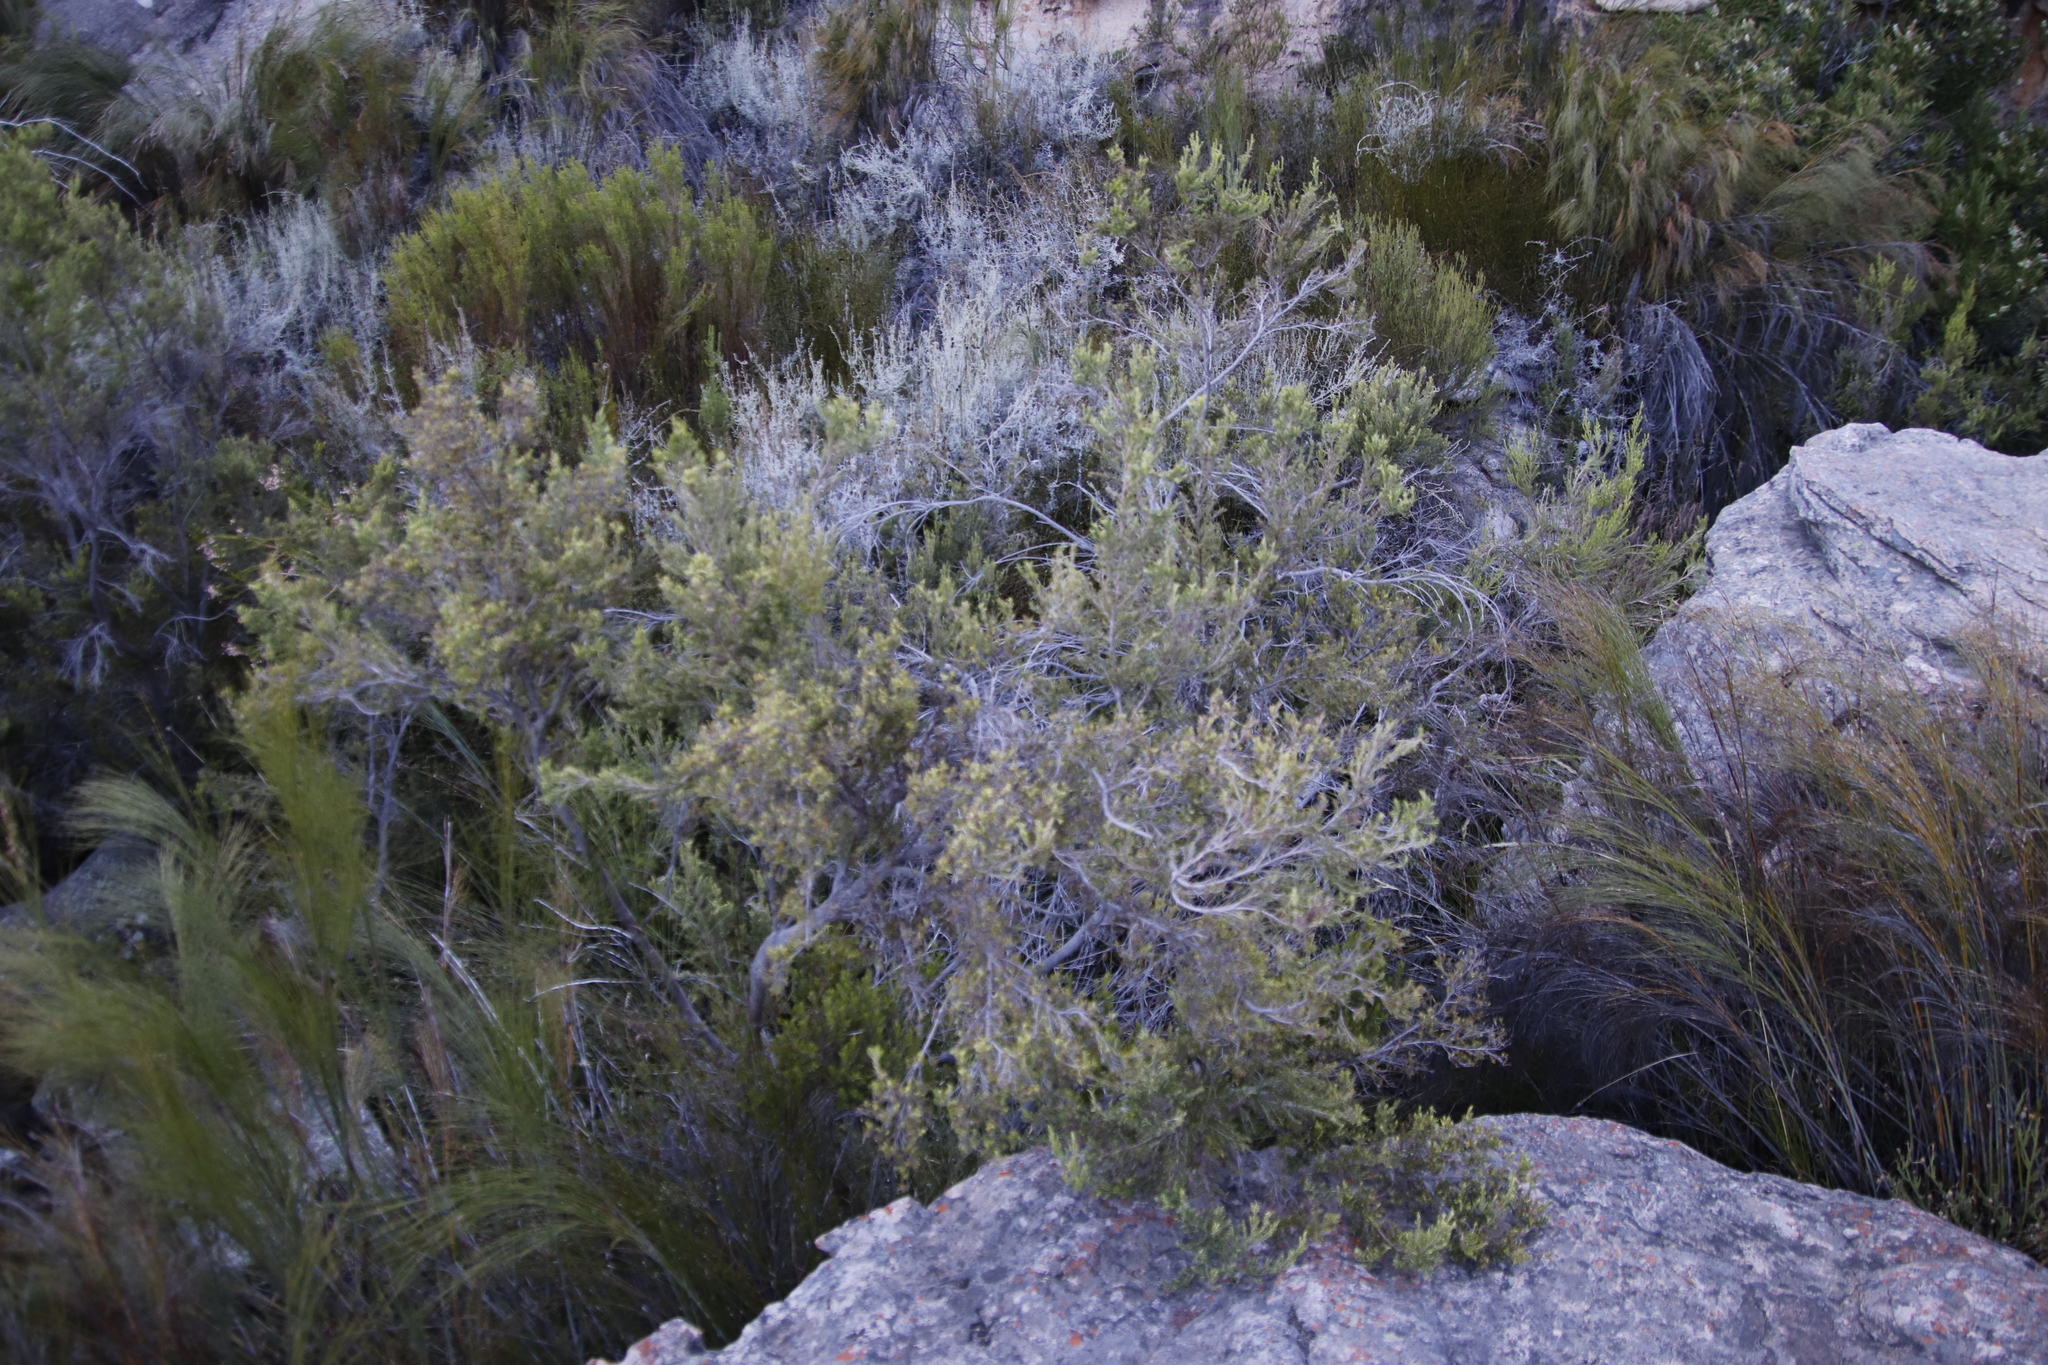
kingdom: Plantae
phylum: Tracheophyta
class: Magnoliopsida
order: Ericales
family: Ericaceae
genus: Erica
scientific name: Erica caffra
